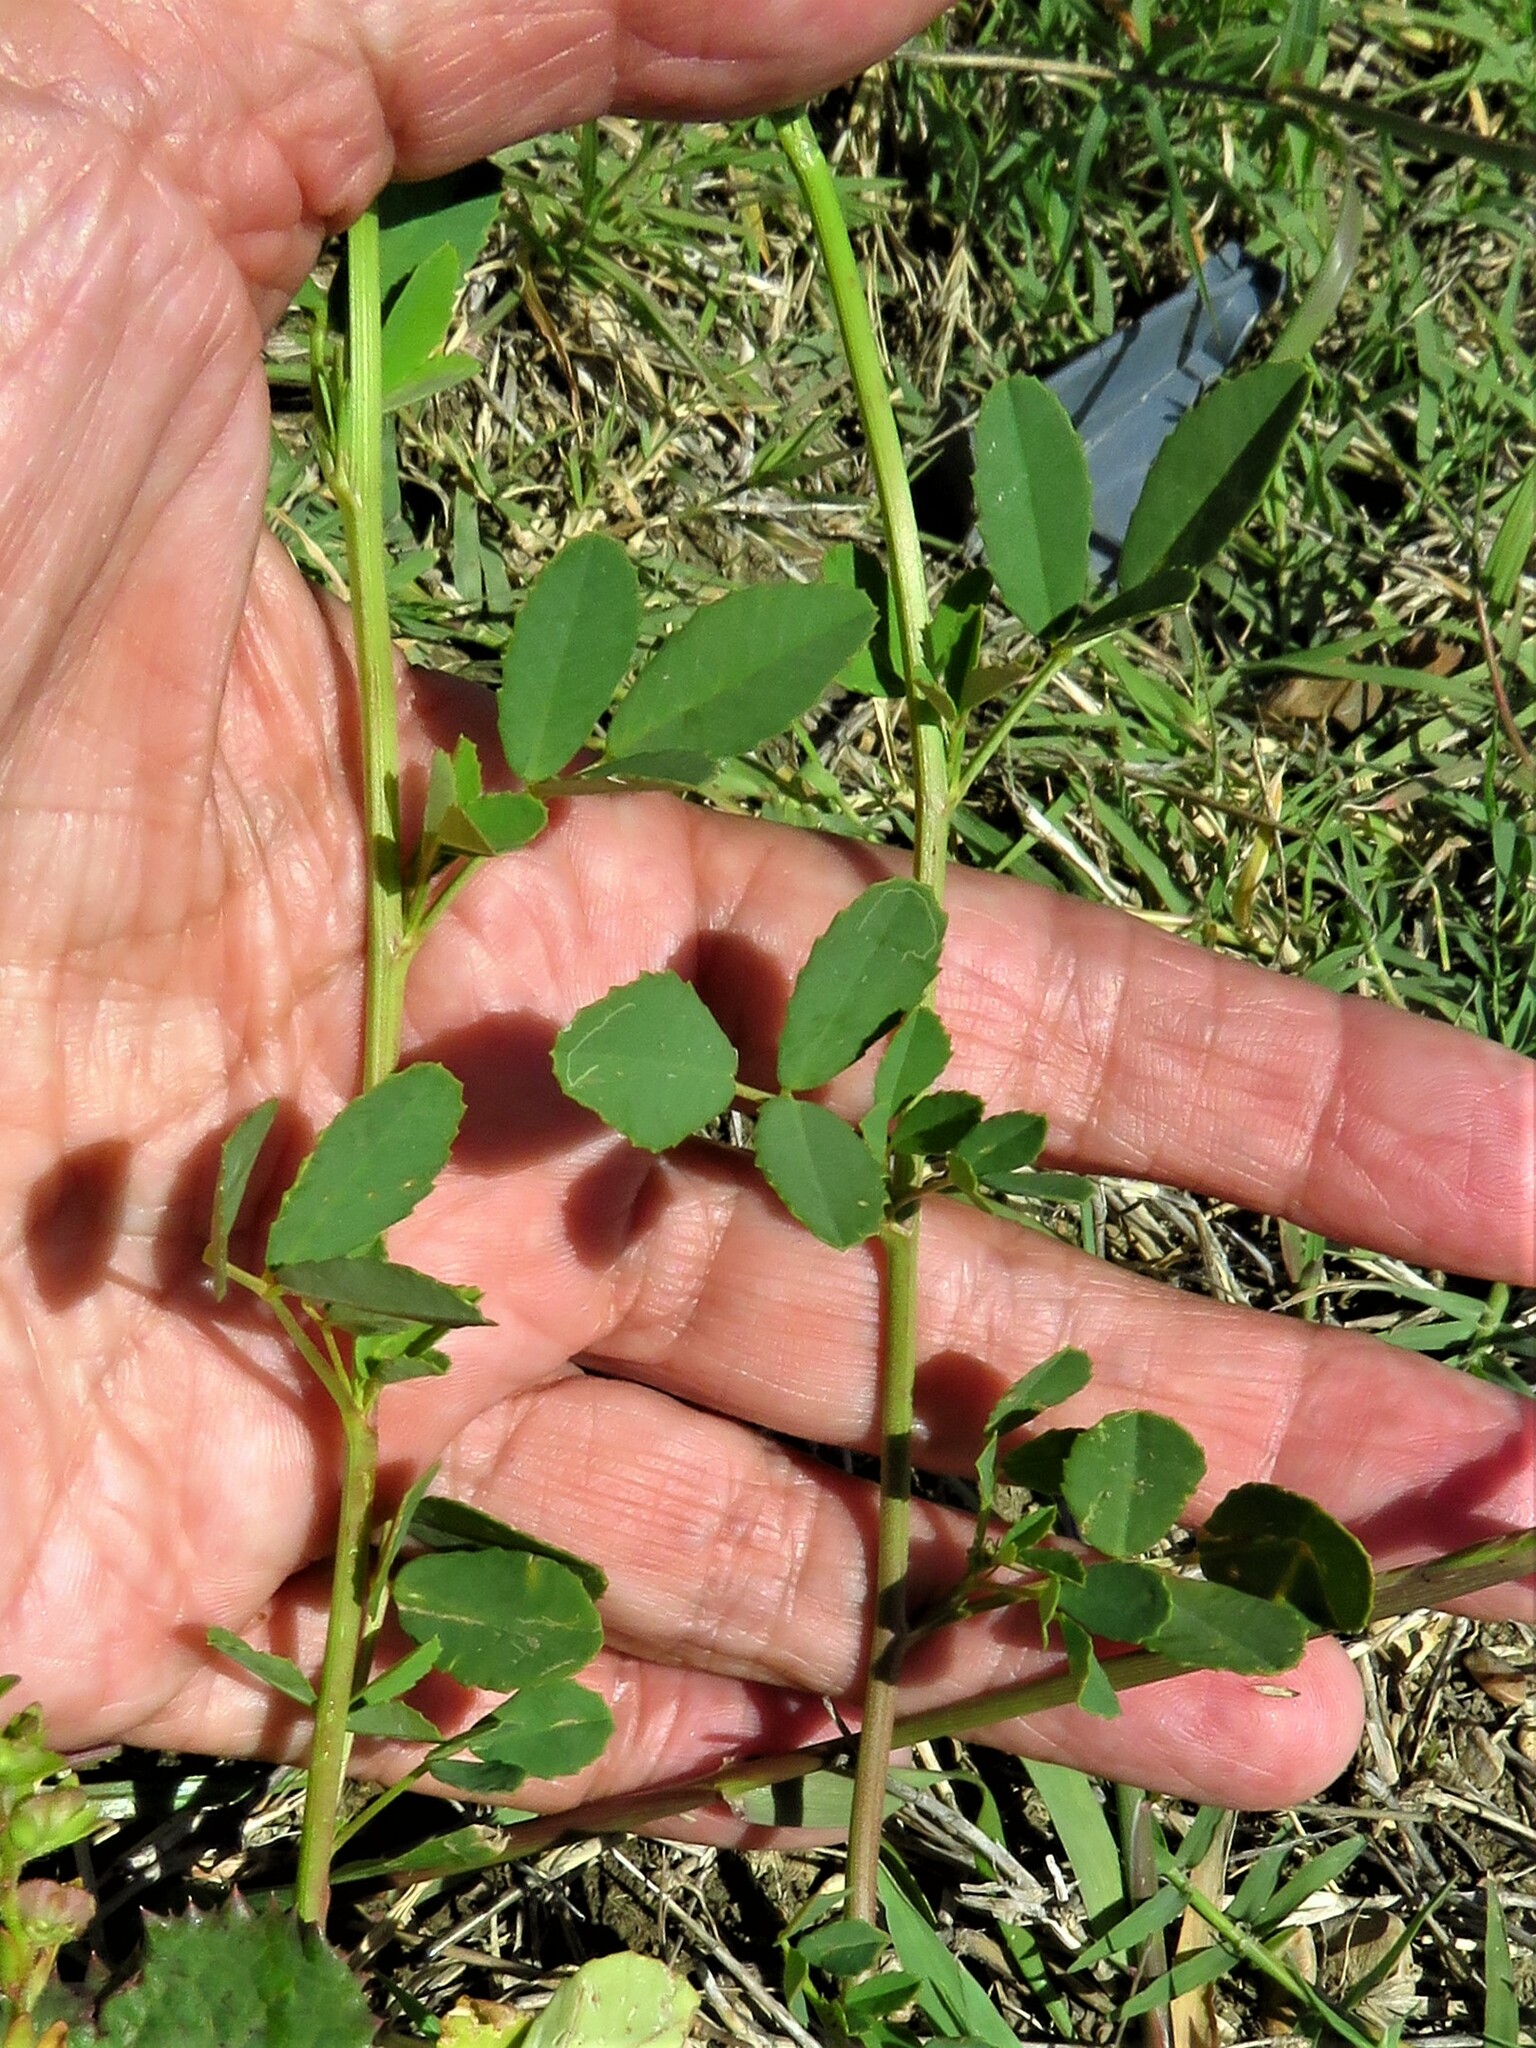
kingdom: Plantae
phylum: Tracheophyta
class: Magnoliopsida
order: Fabales
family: Fabaceae
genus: Melilotus
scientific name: Melilotus albus
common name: White melilot
